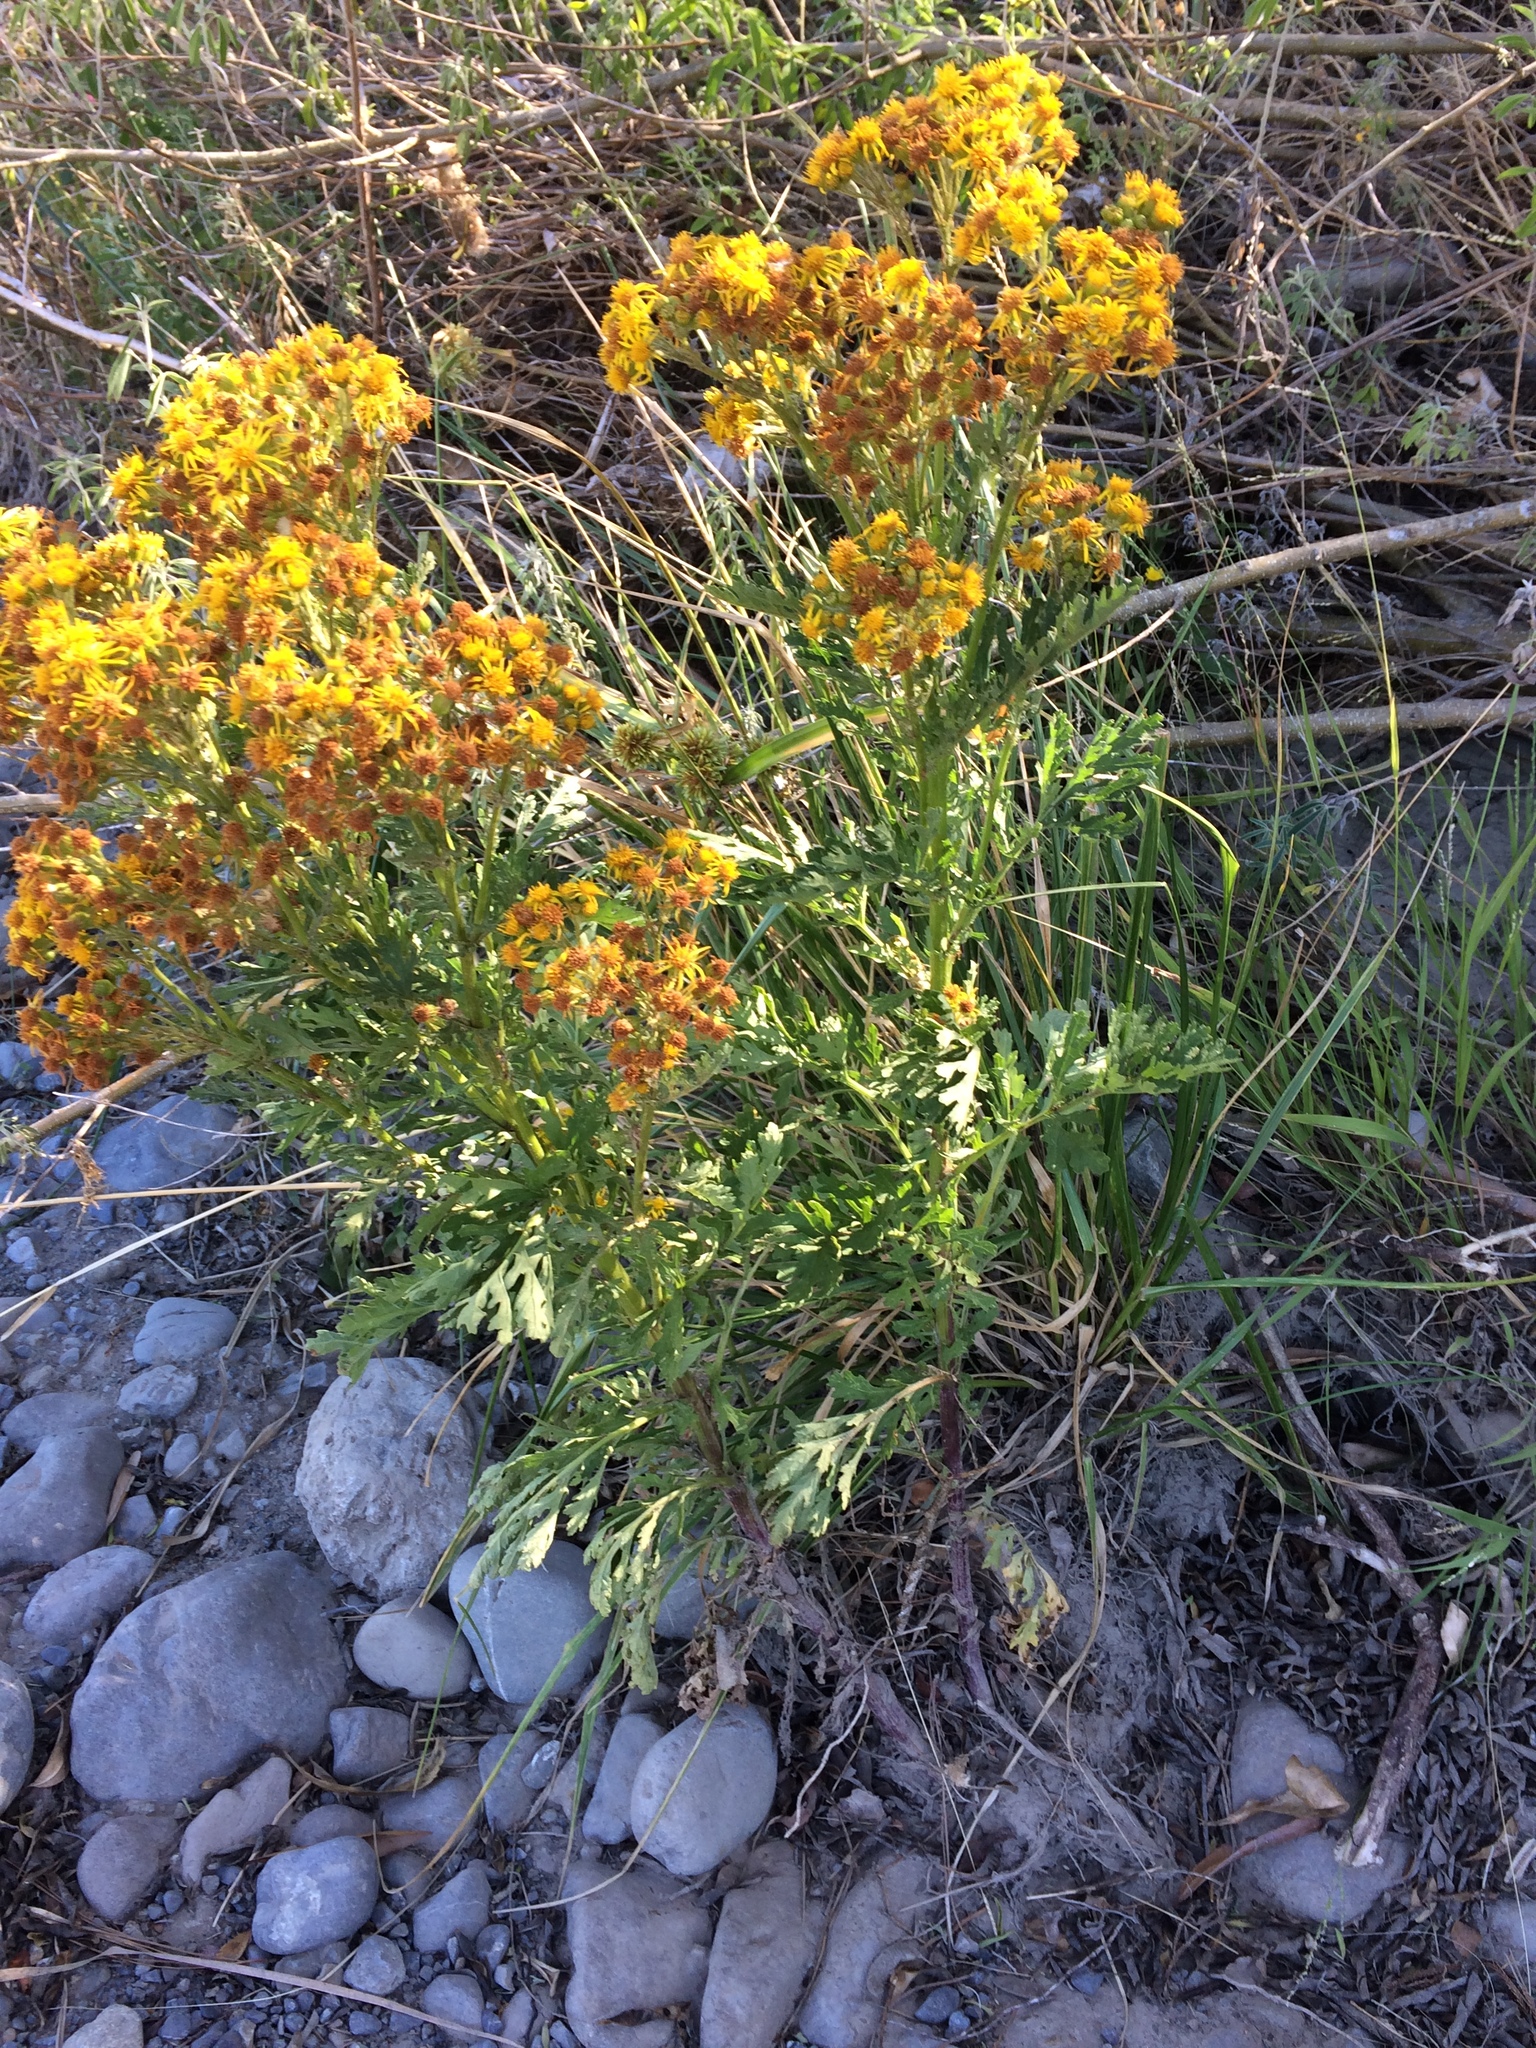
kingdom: Plantae
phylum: Tracheophyta
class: Magnoliopsida
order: Asterales
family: Asteraceae
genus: Jacobaea
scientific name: Jacobaea vulgaris
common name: Stinking willie
